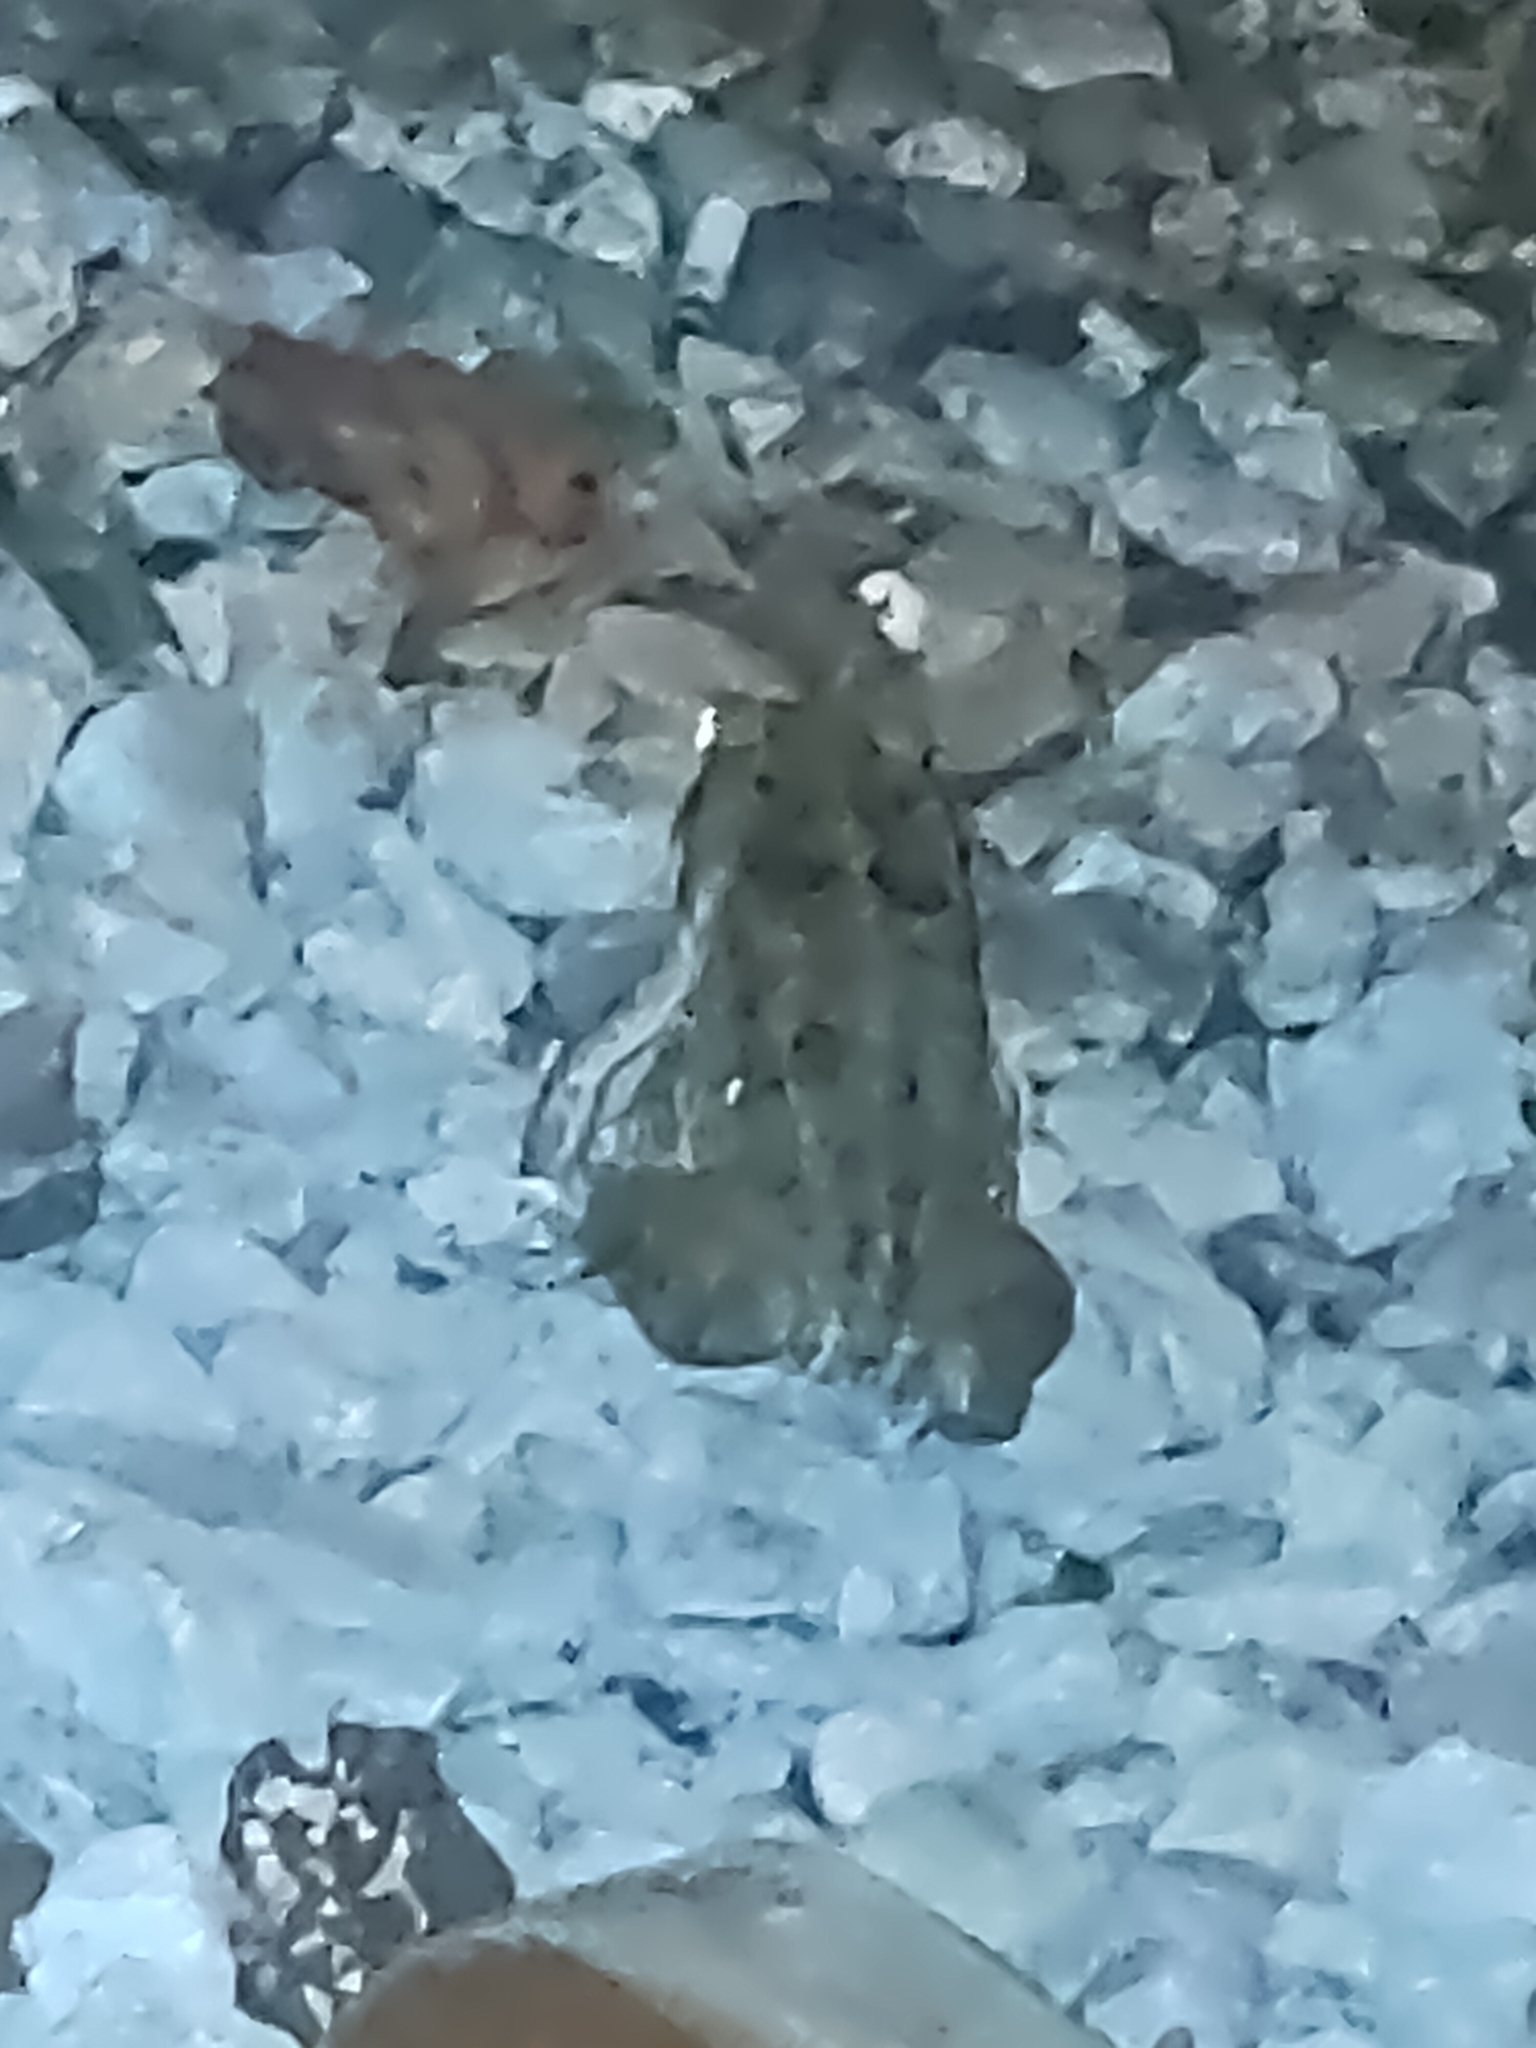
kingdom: Animalia
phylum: Chordata
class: Amphibia
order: Anura
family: Bufonidae
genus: Rhinella
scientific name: Rhinella
